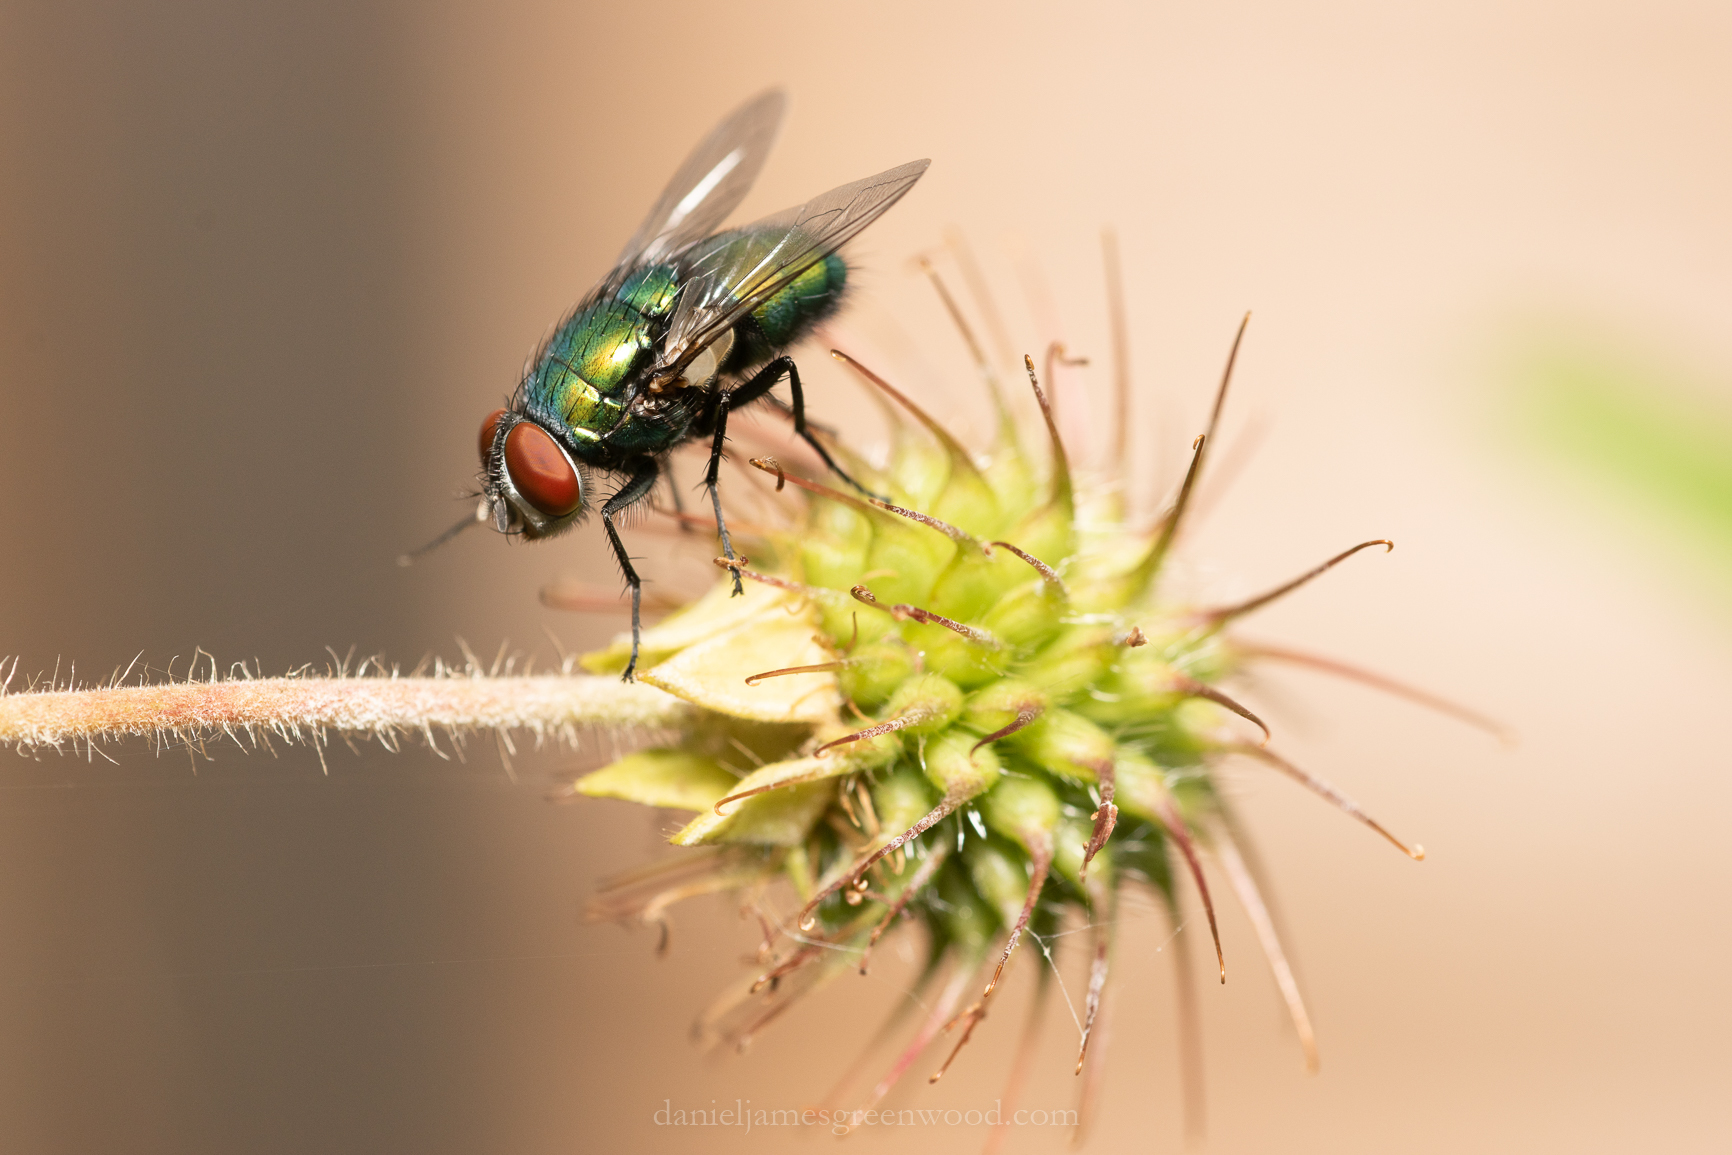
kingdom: Animalia
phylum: Arthropoda
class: Insecta
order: Diptera
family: Calliphoridae
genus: Lucilia
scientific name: Lucilia sericata
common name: Blow fly
